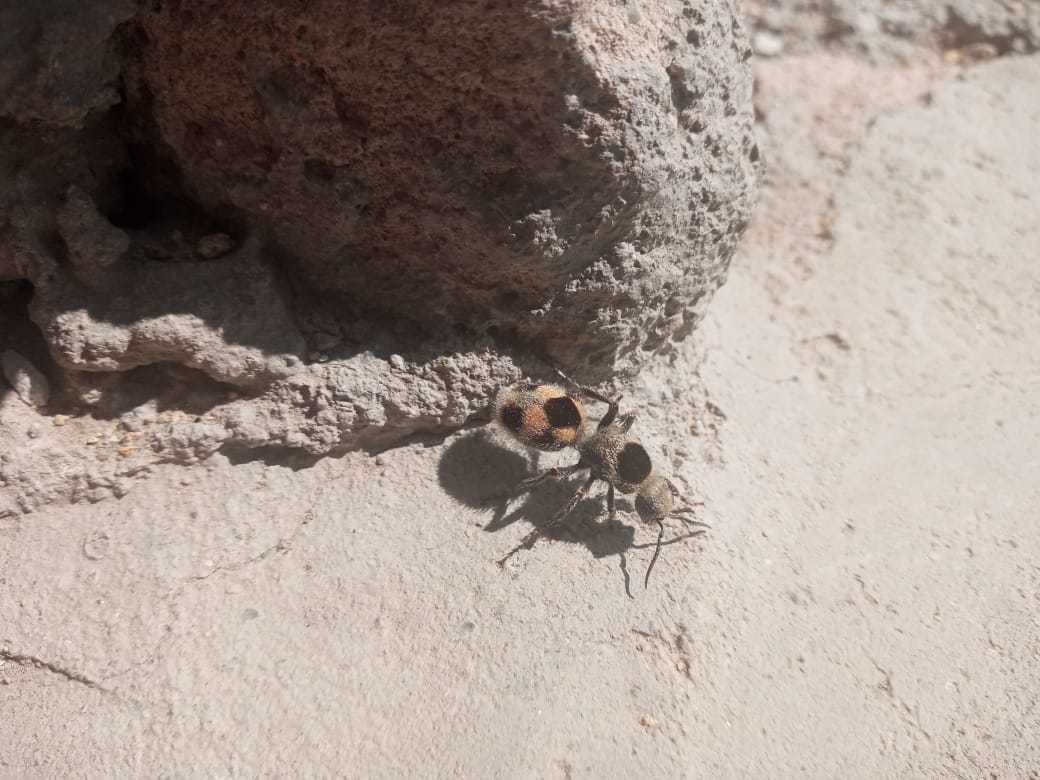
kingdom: Animalia
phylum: Arthropoda
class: Insecta
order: Hymenoptera
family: Mutillidae
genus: Dasymutilla
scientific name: Dasymutilla
